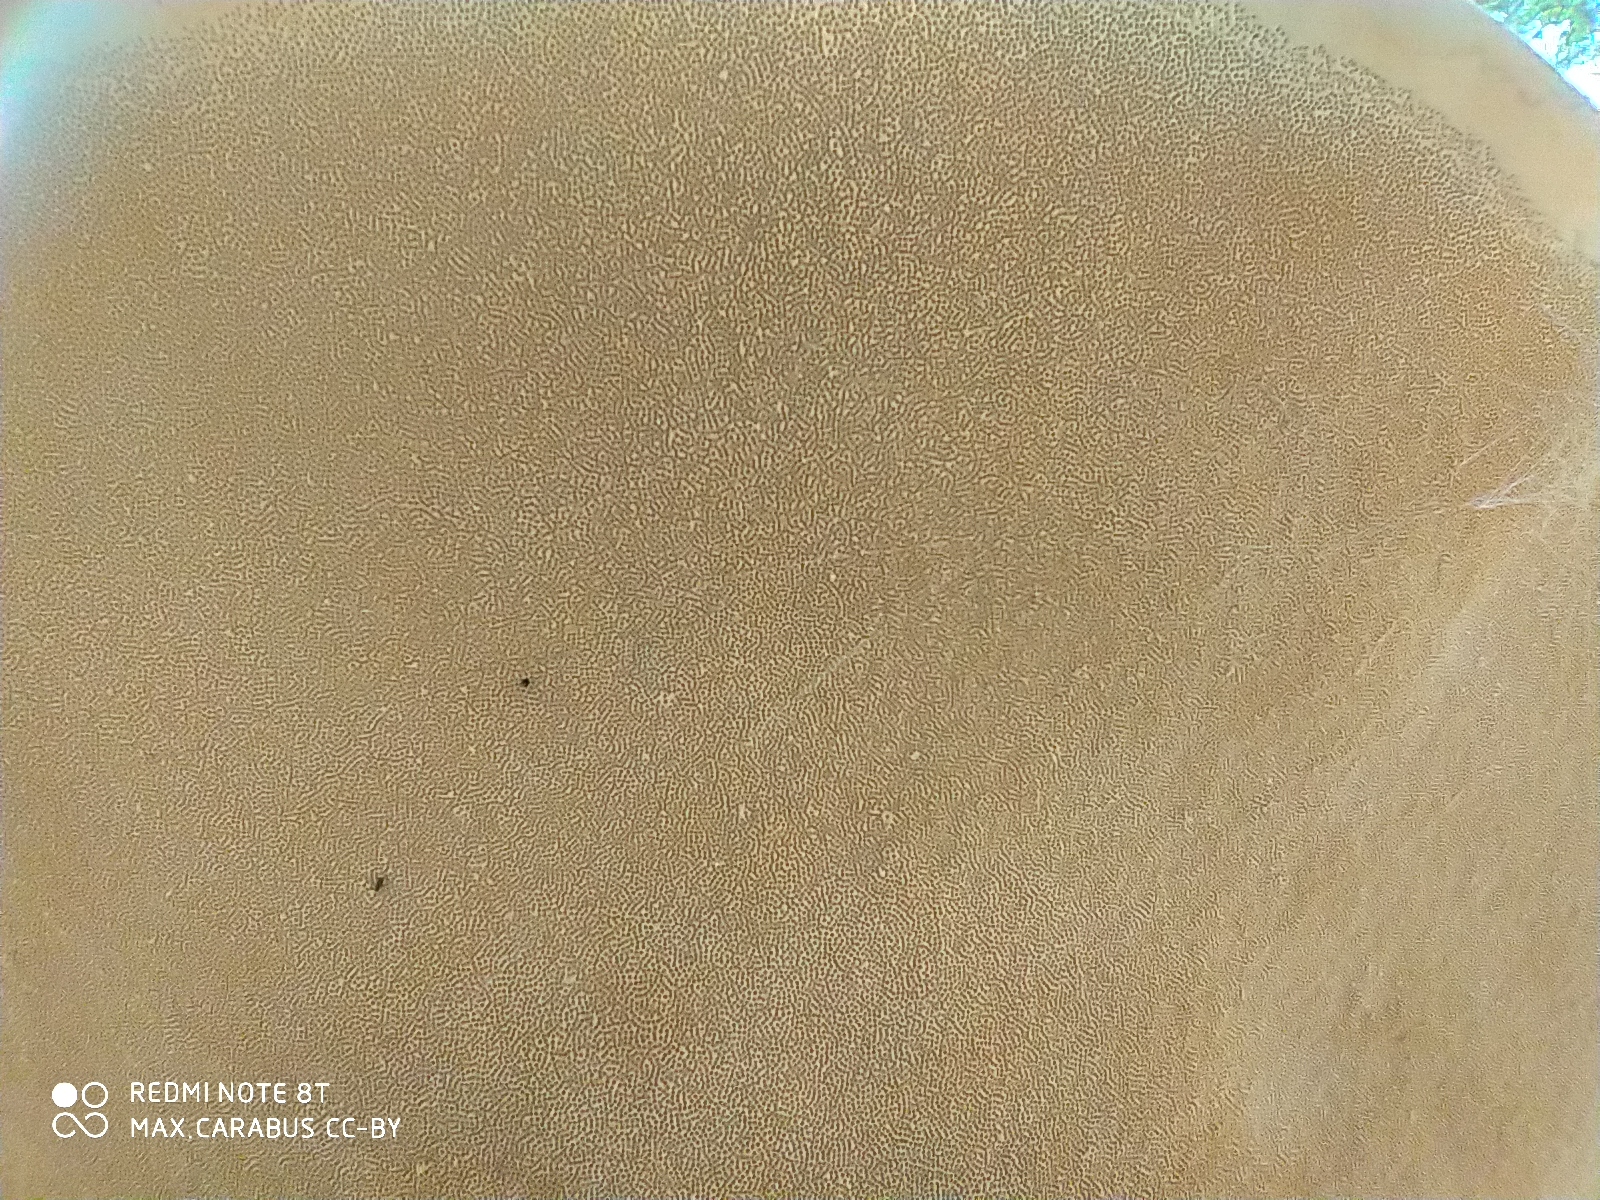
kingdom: Fungi
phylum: Basidiomycota
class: Agaricomycetes
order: Polyporales
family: Fomitopsidaceae
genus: Fomitopsis
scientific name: Fomitopsis pinicola
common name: Red-belted bracket
